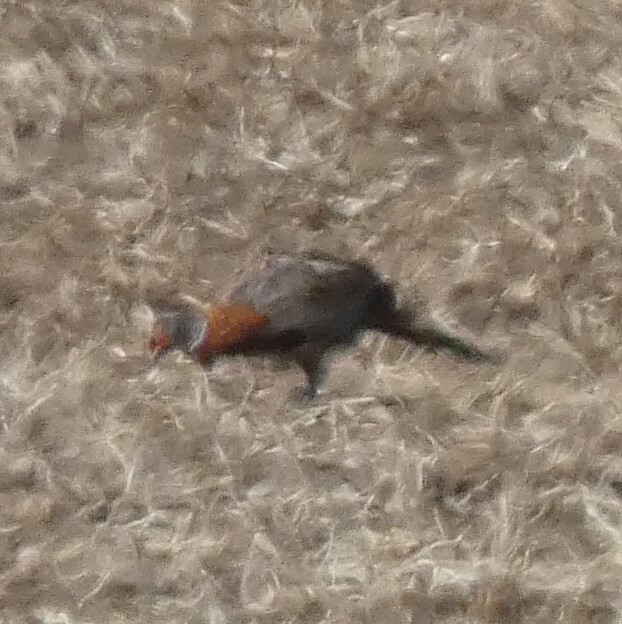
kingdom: Animalia
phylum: Chordata
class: Aves
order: Galliformes
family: Phasianidae
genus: Phasianus
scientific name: Phasianus colchicus
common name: Common pheasant
